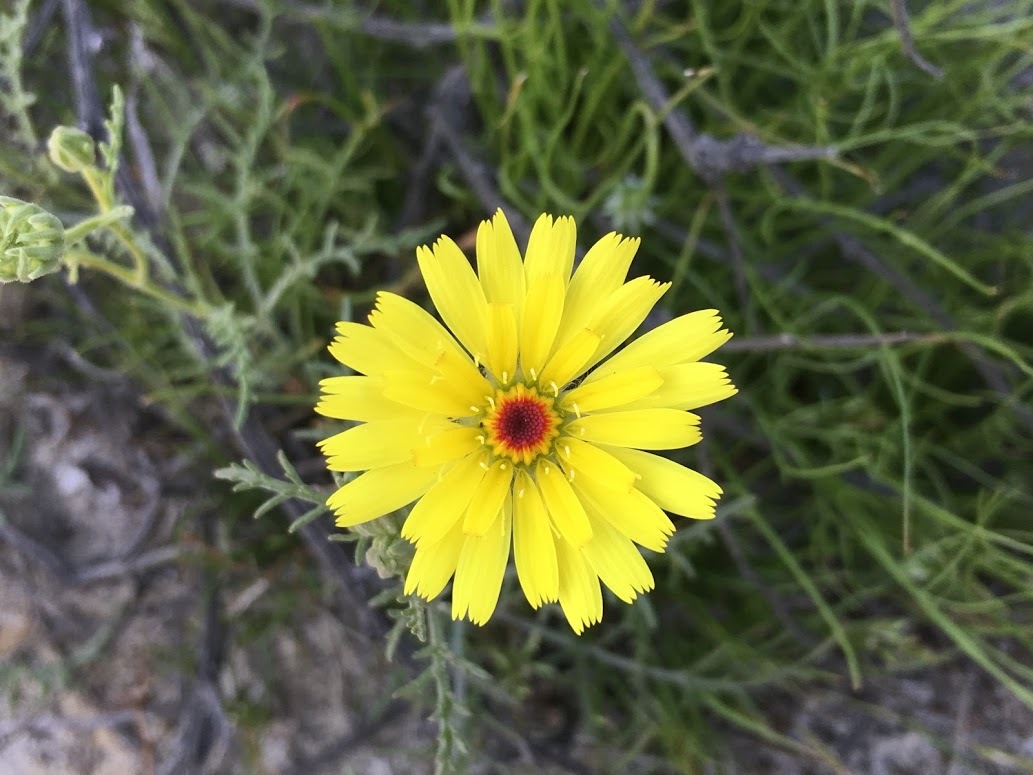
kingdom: Plantae
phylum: Tracheophyta
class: Magnoliopsida
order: Asterales
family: Asteraceae
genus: Malacothrix
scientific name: Malacothrix glabrata
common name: Smooth desert-dandelion
